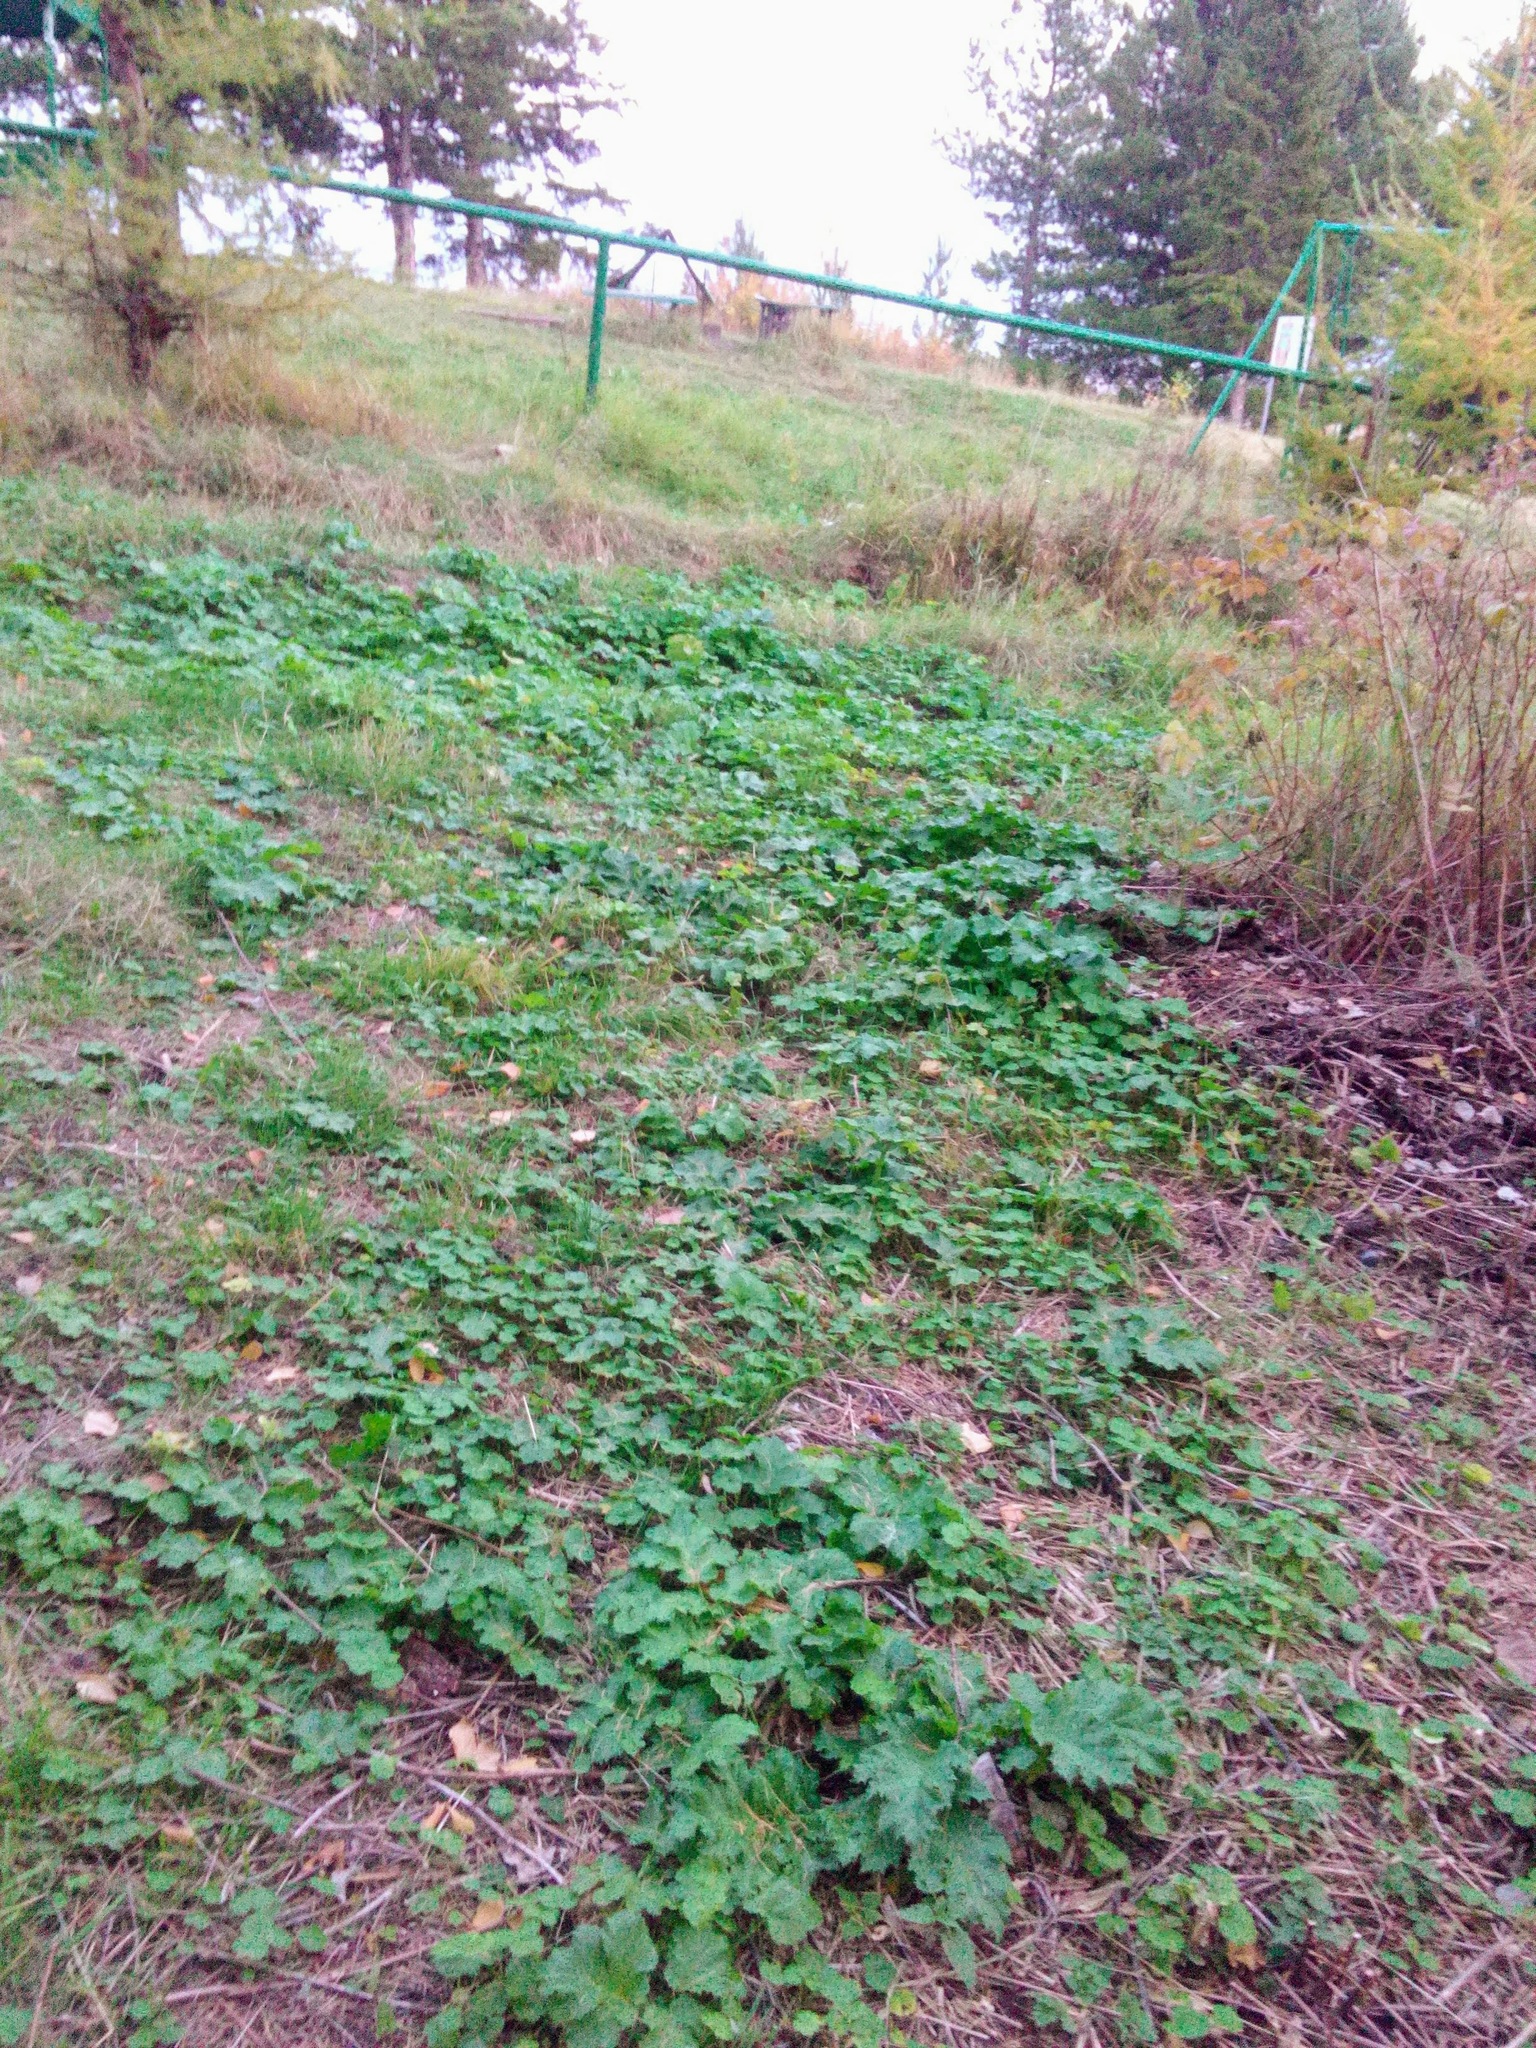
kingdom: Plantae
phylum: Tracheophyta
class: Magnoliopsida
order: Apiales
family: Apiaceae
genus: Heracleum
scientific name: Heracleum sosnowskyi
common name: Sosnowsky's hogweed
